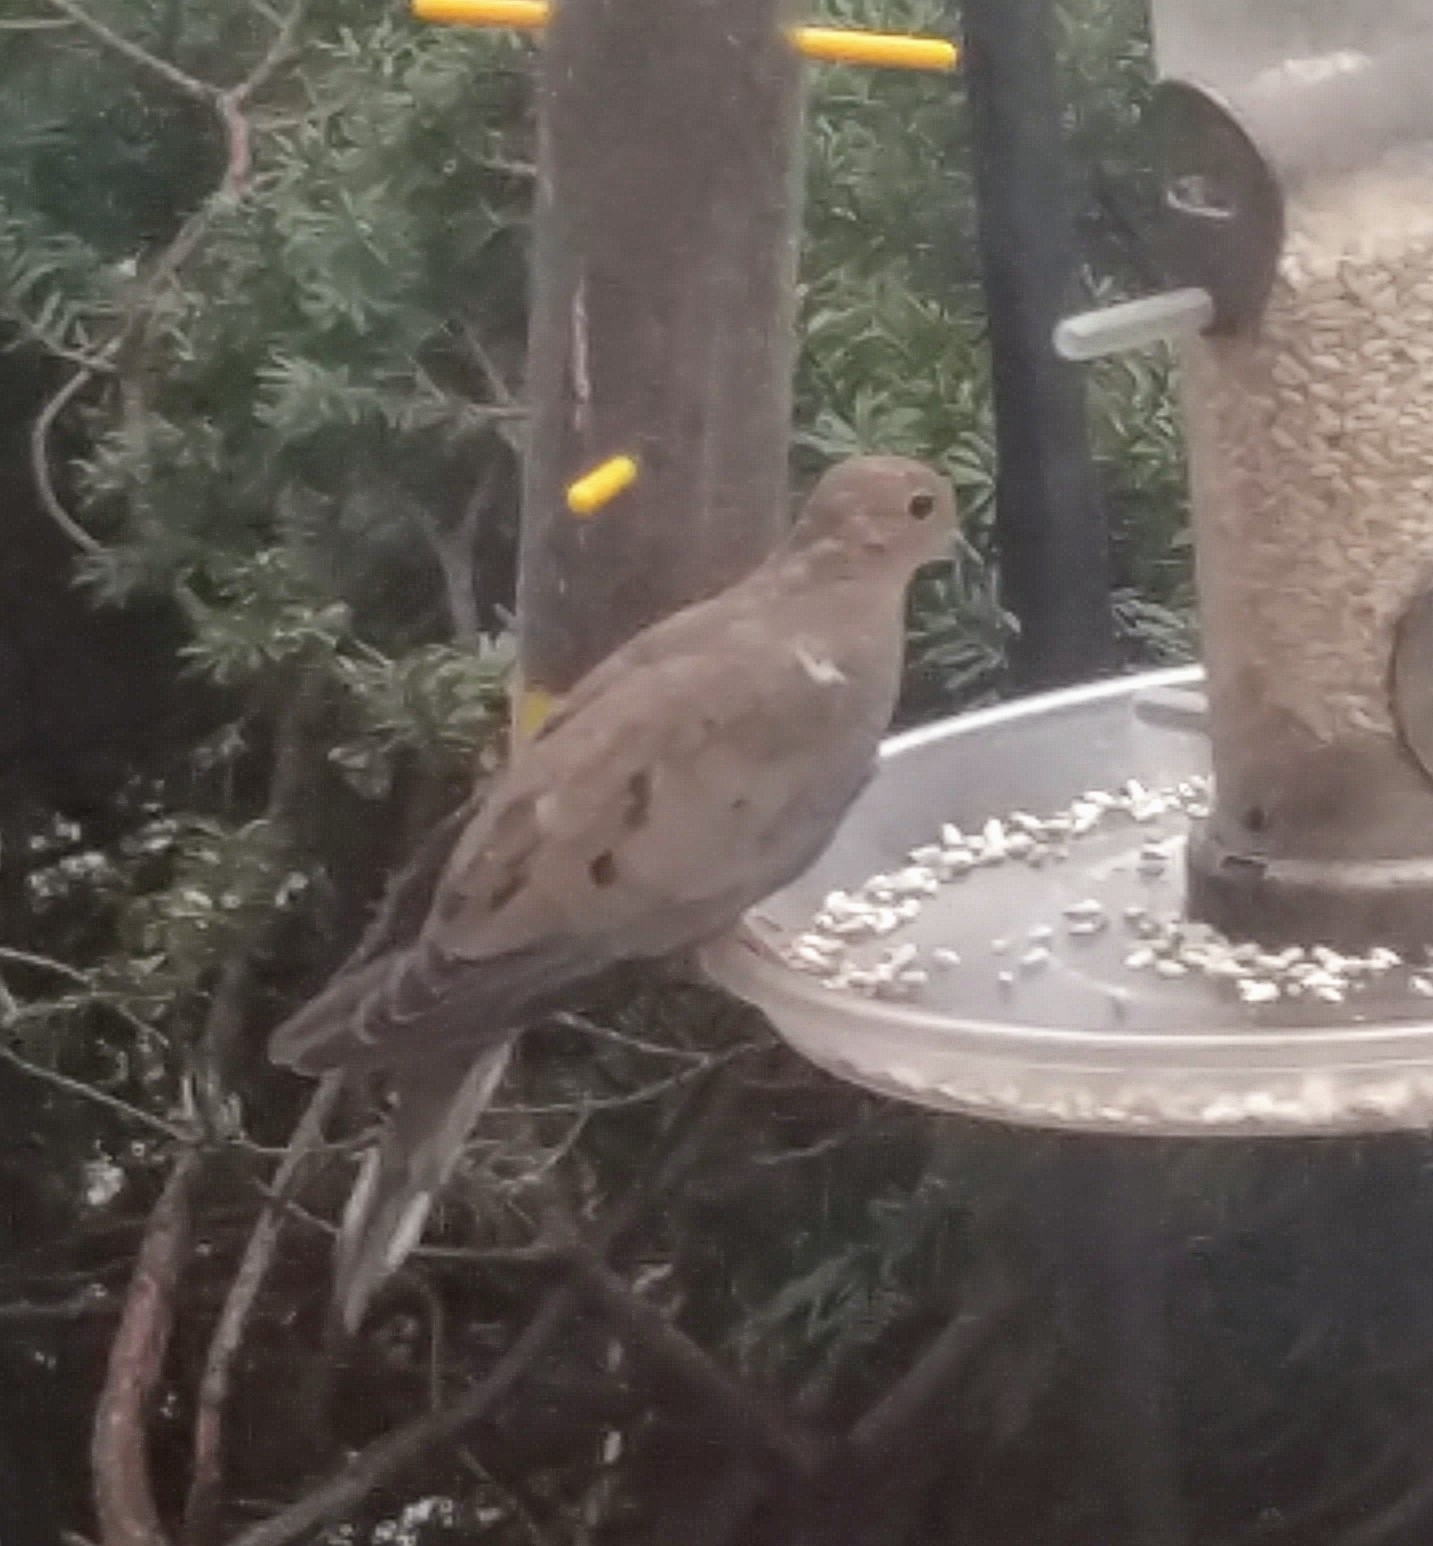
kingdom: Animalia
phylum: Chordata
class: Aves
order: Columbiformes
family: Columbidae
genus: Zenaida
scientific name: Zenaida macroura
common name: Mourning dove
